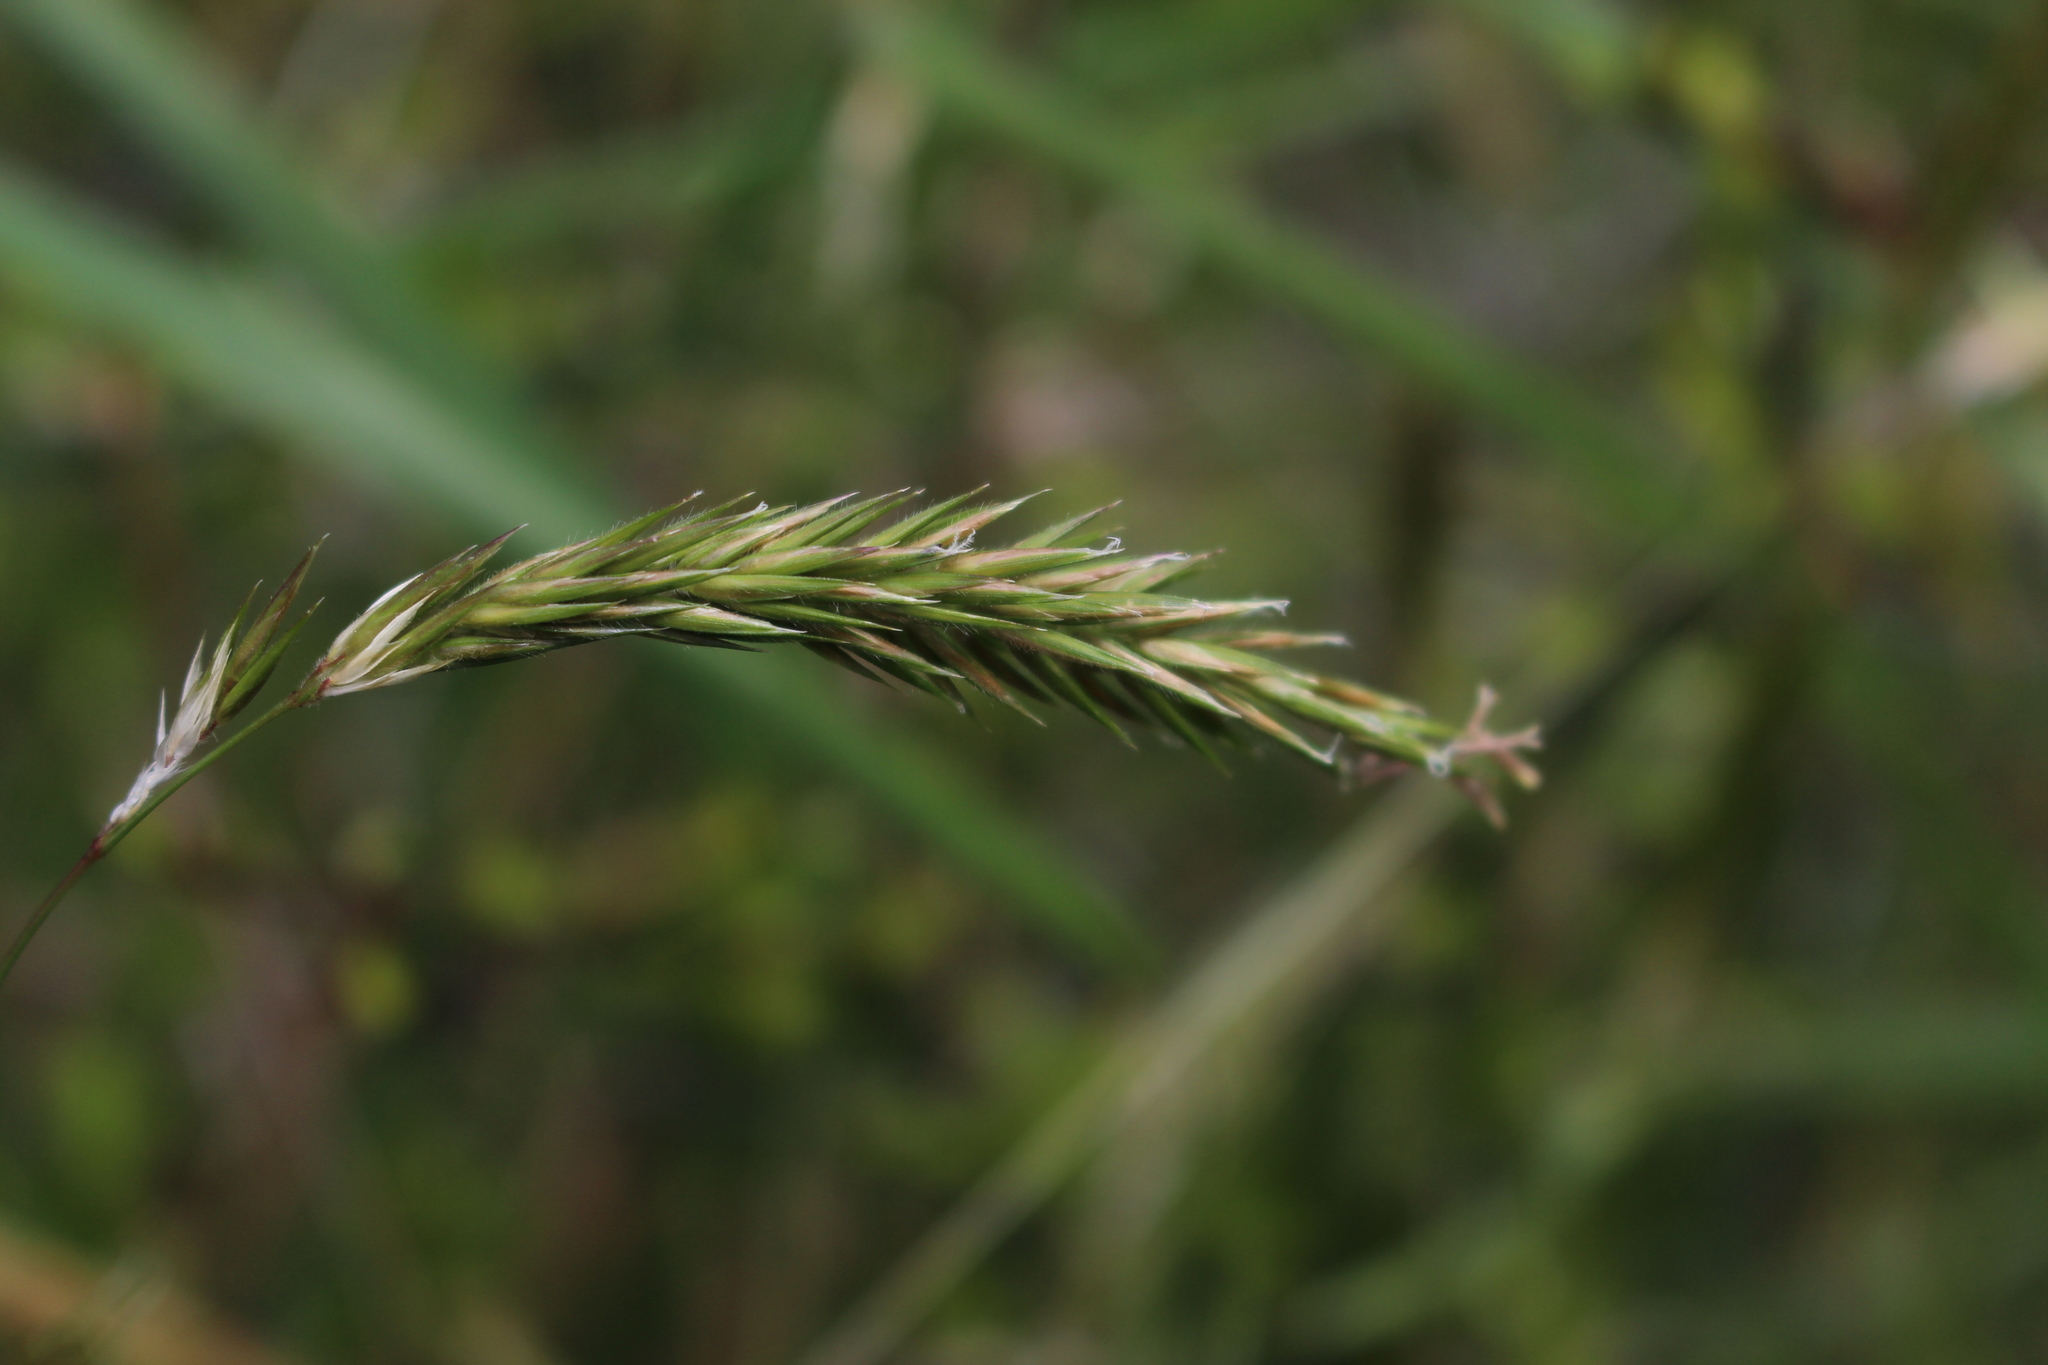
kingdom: Plantae
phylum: Tracheophyta
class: Liliopsida
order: Poales
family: Poaceae
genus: Anthoxanthum
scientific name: Anthoxanthum odoratum
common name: Sweet vernalgrass
